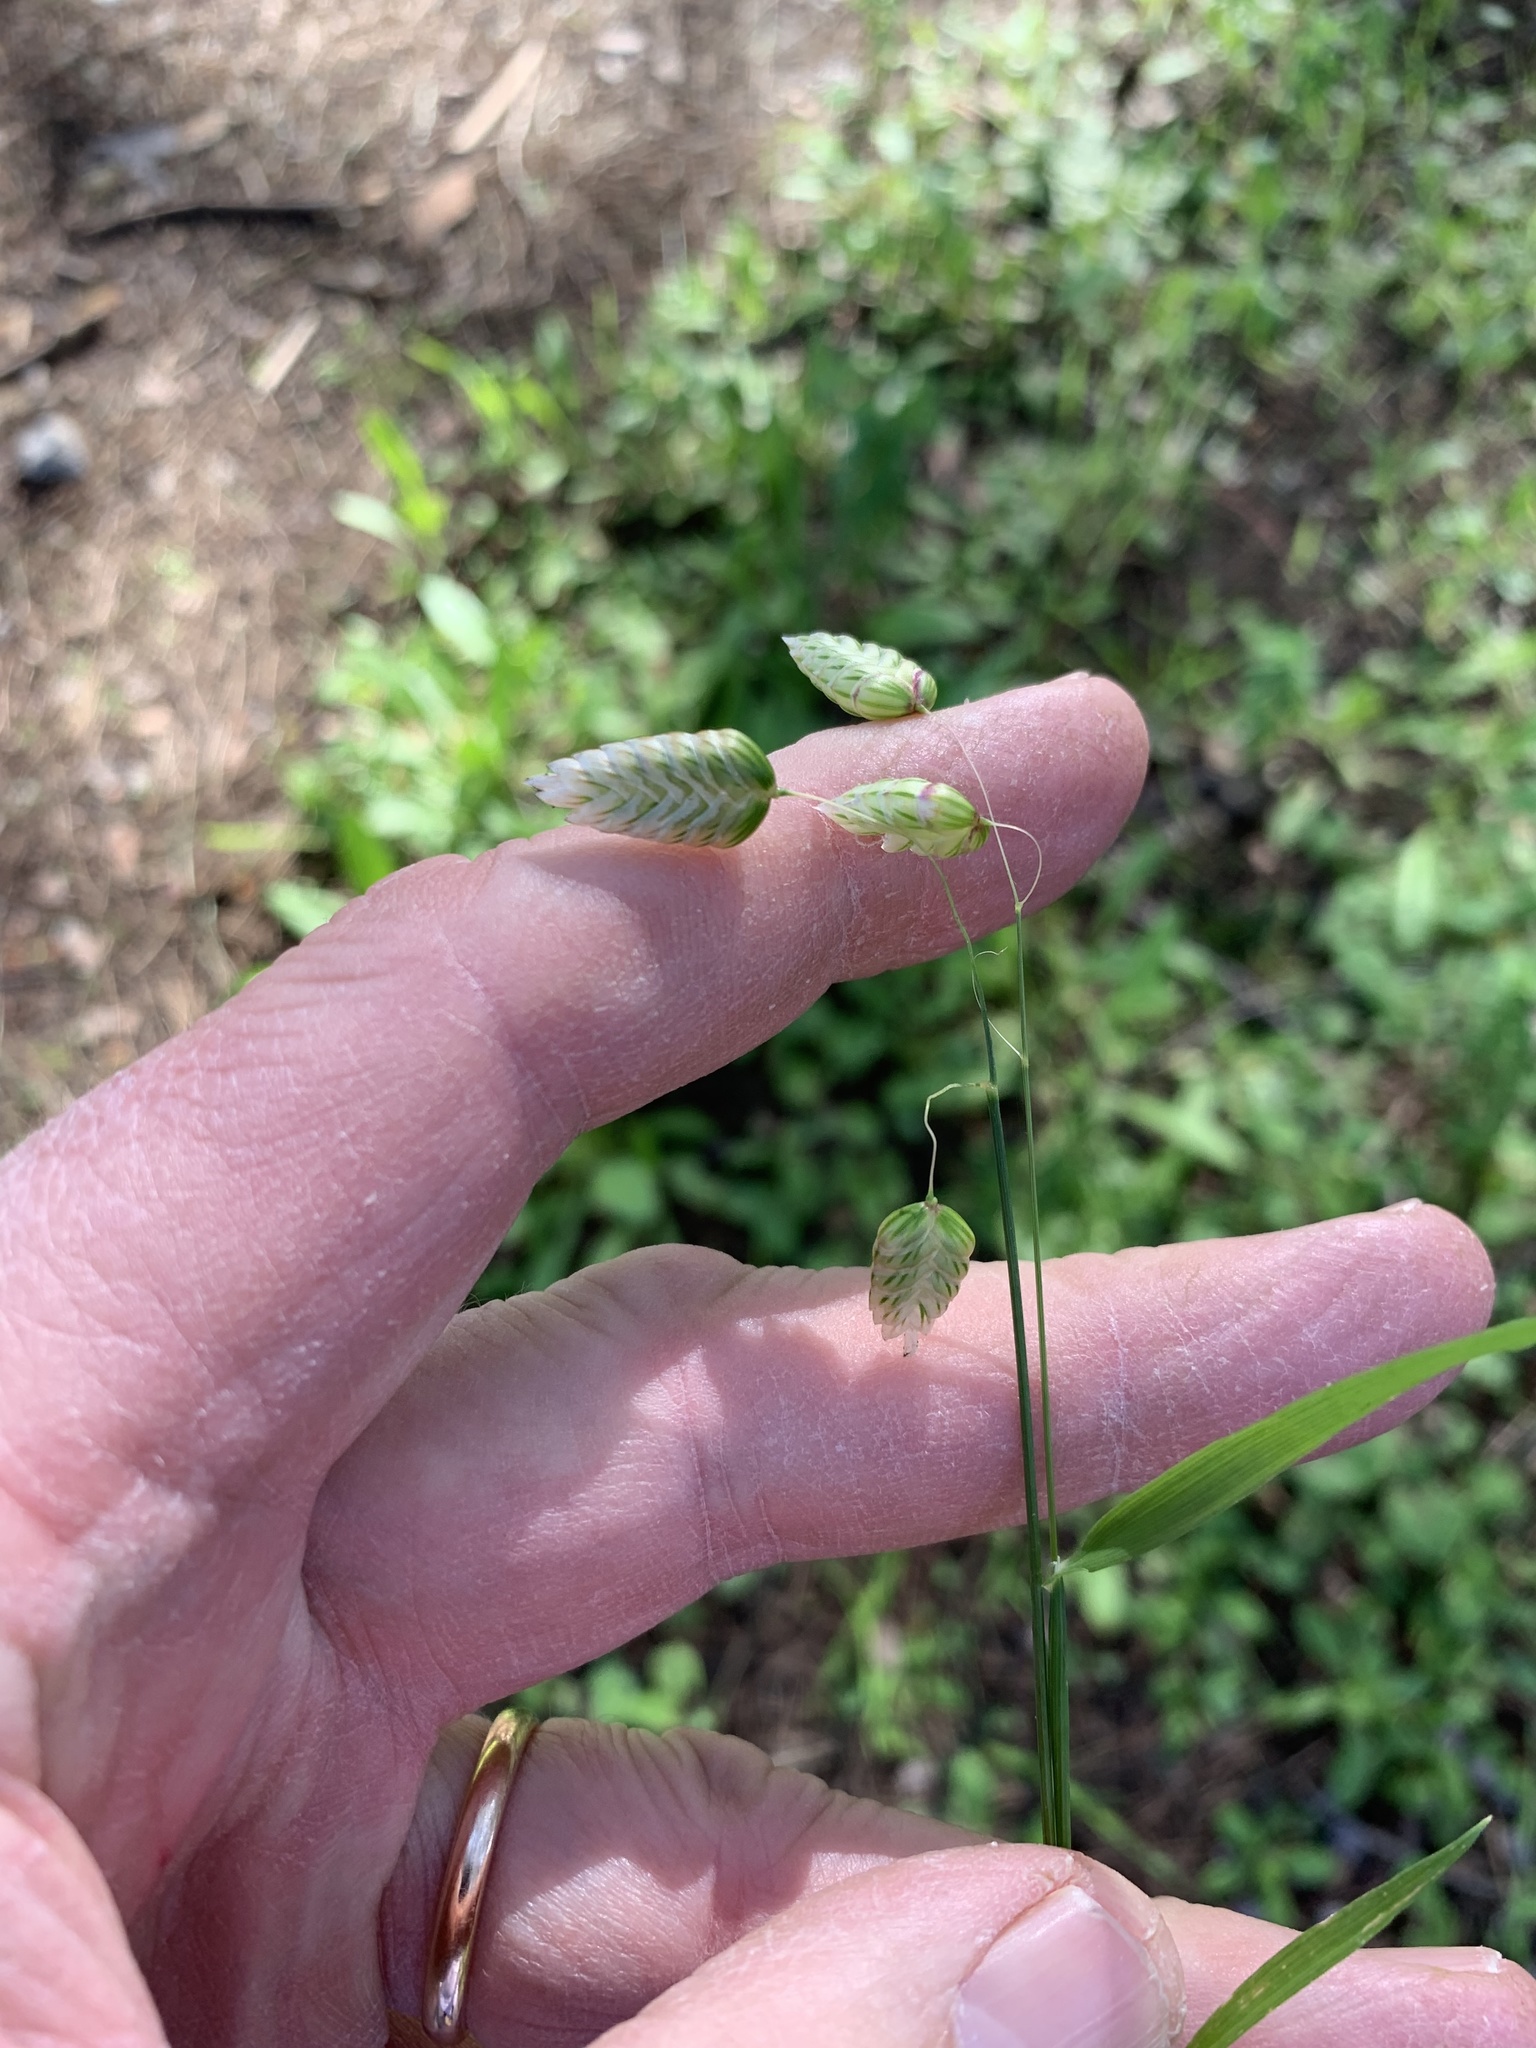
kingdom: Plantae
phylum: Tracheophyta
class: Liliopsida
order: Poales
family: Poaceae
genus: Briza
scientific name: Briza maxima
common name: Big quakinggrass
